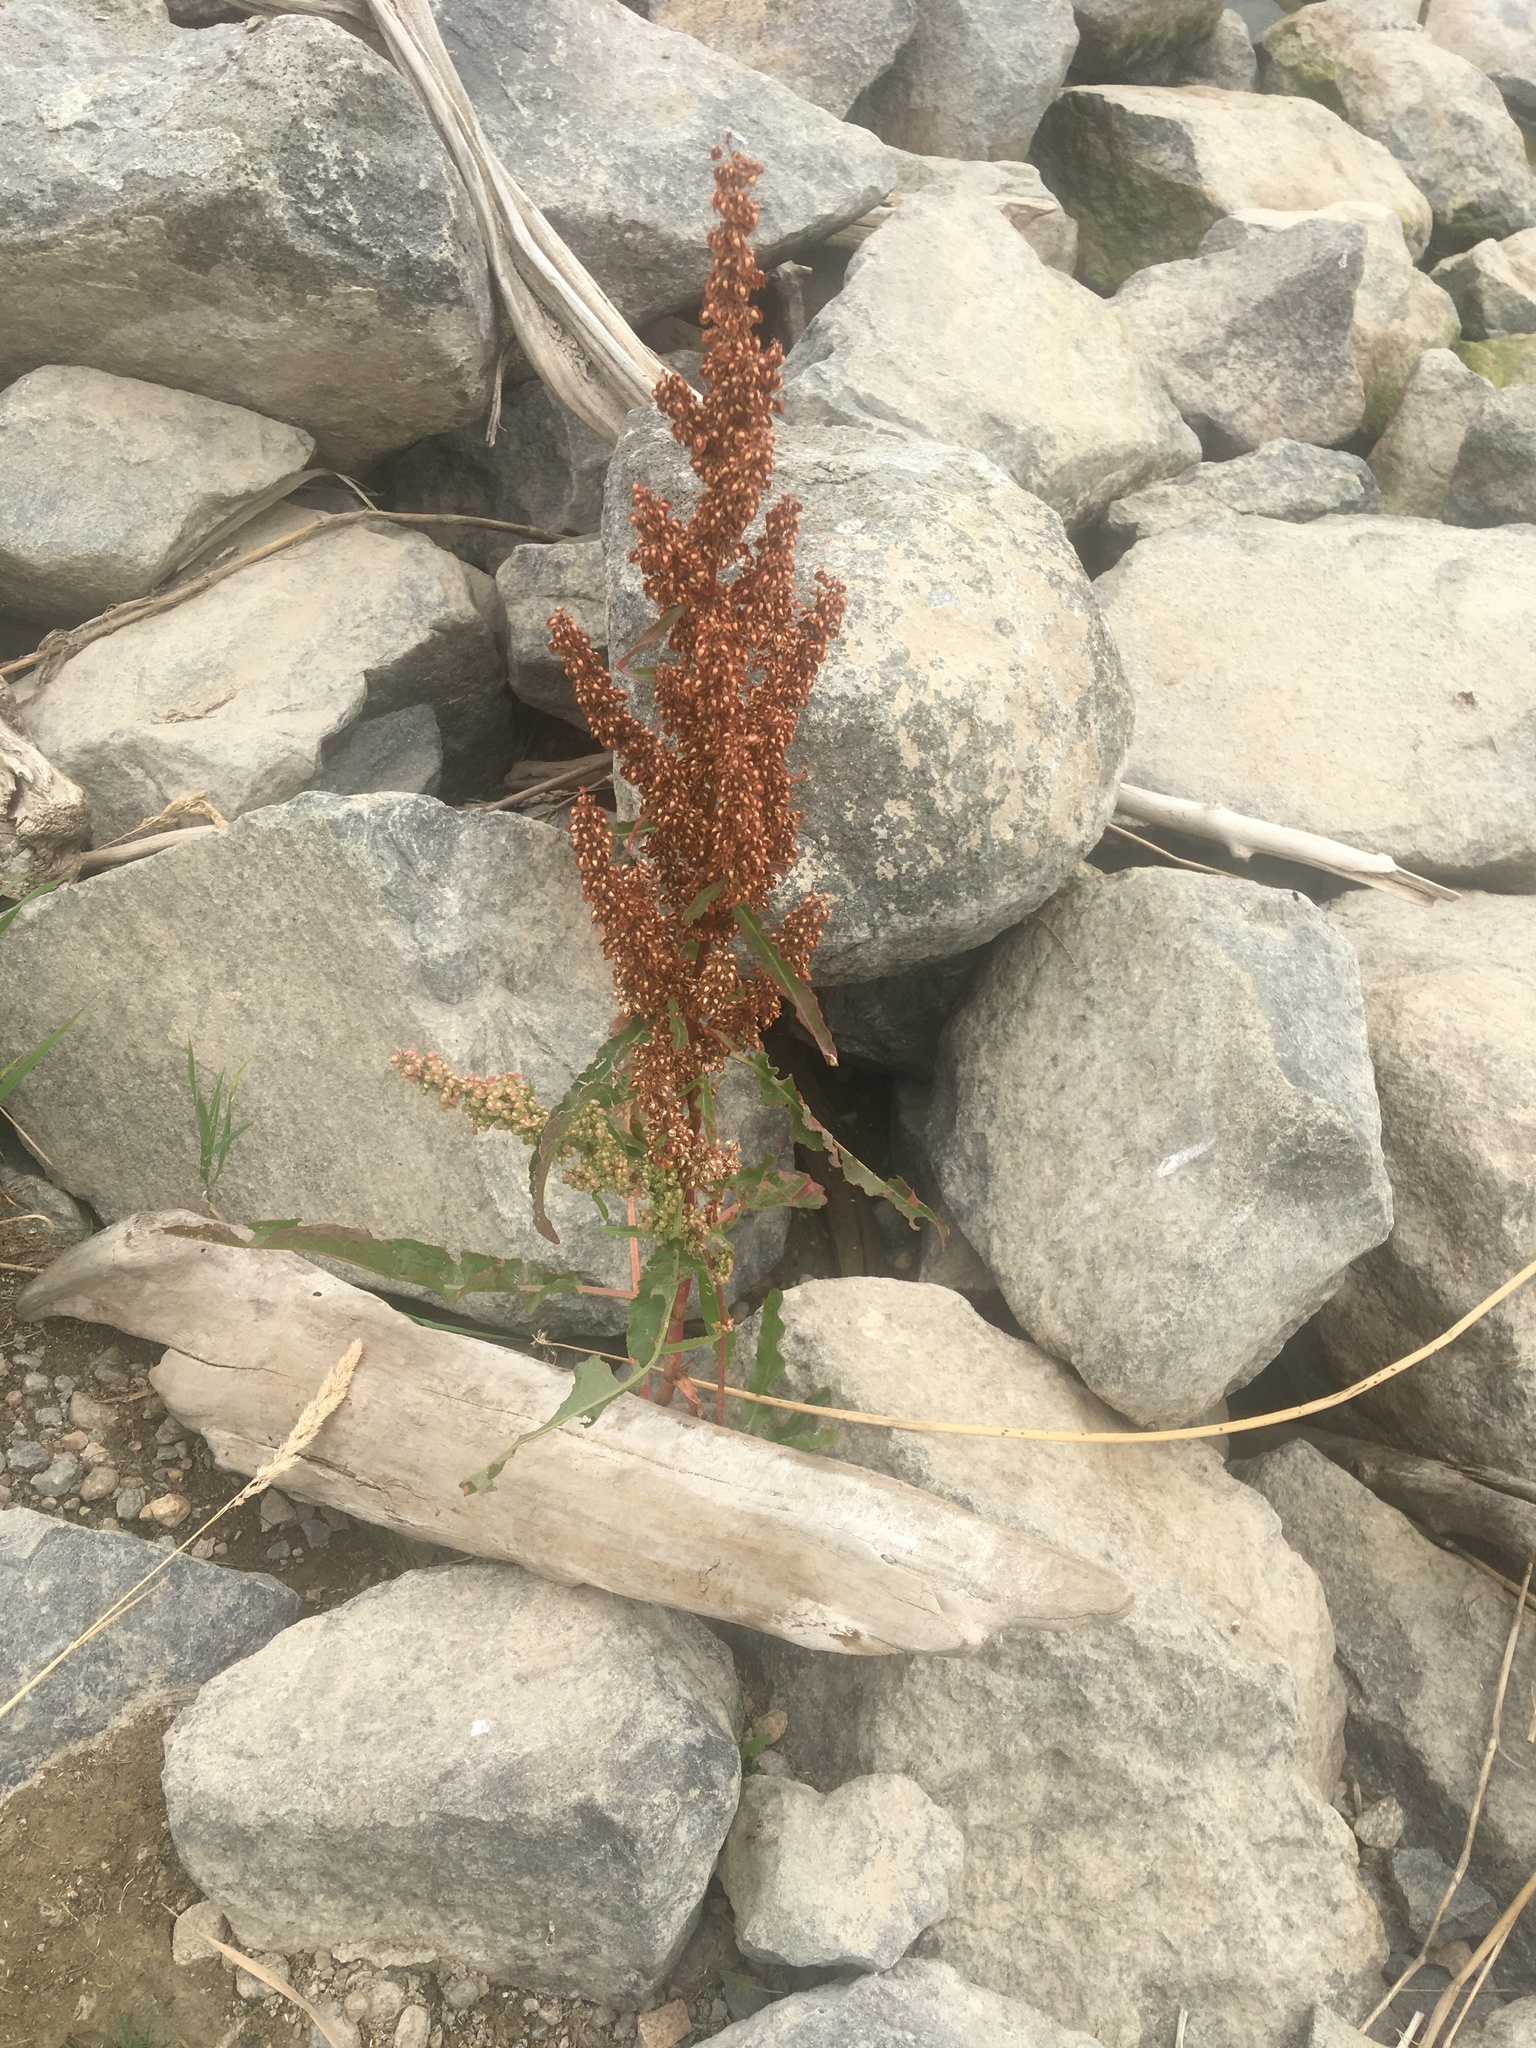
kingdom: Plantae
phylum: Tracheophyta
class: Magnoliopsida
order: Caryophyllales
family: Polygonaceae
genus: Rumex
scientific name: Rumex crispus
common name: Curled dock
